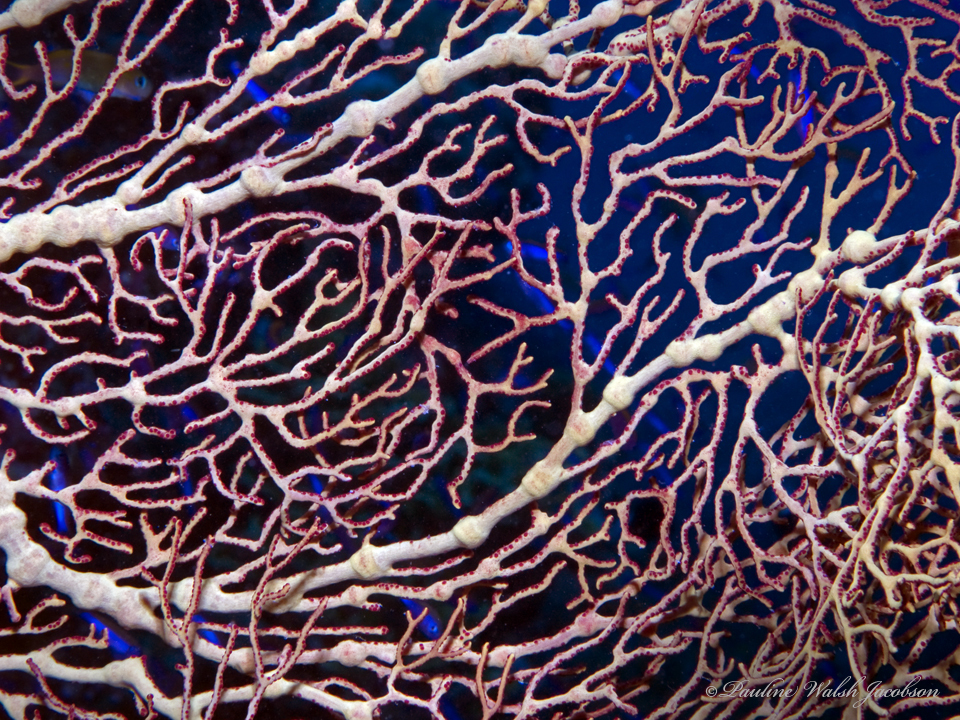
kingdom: Animalia
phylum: Cnidaria
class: Anthozoa
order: Malacalcyonacea
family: Melithaeidae
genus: Melithaea
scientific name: Melithaea ochracea
